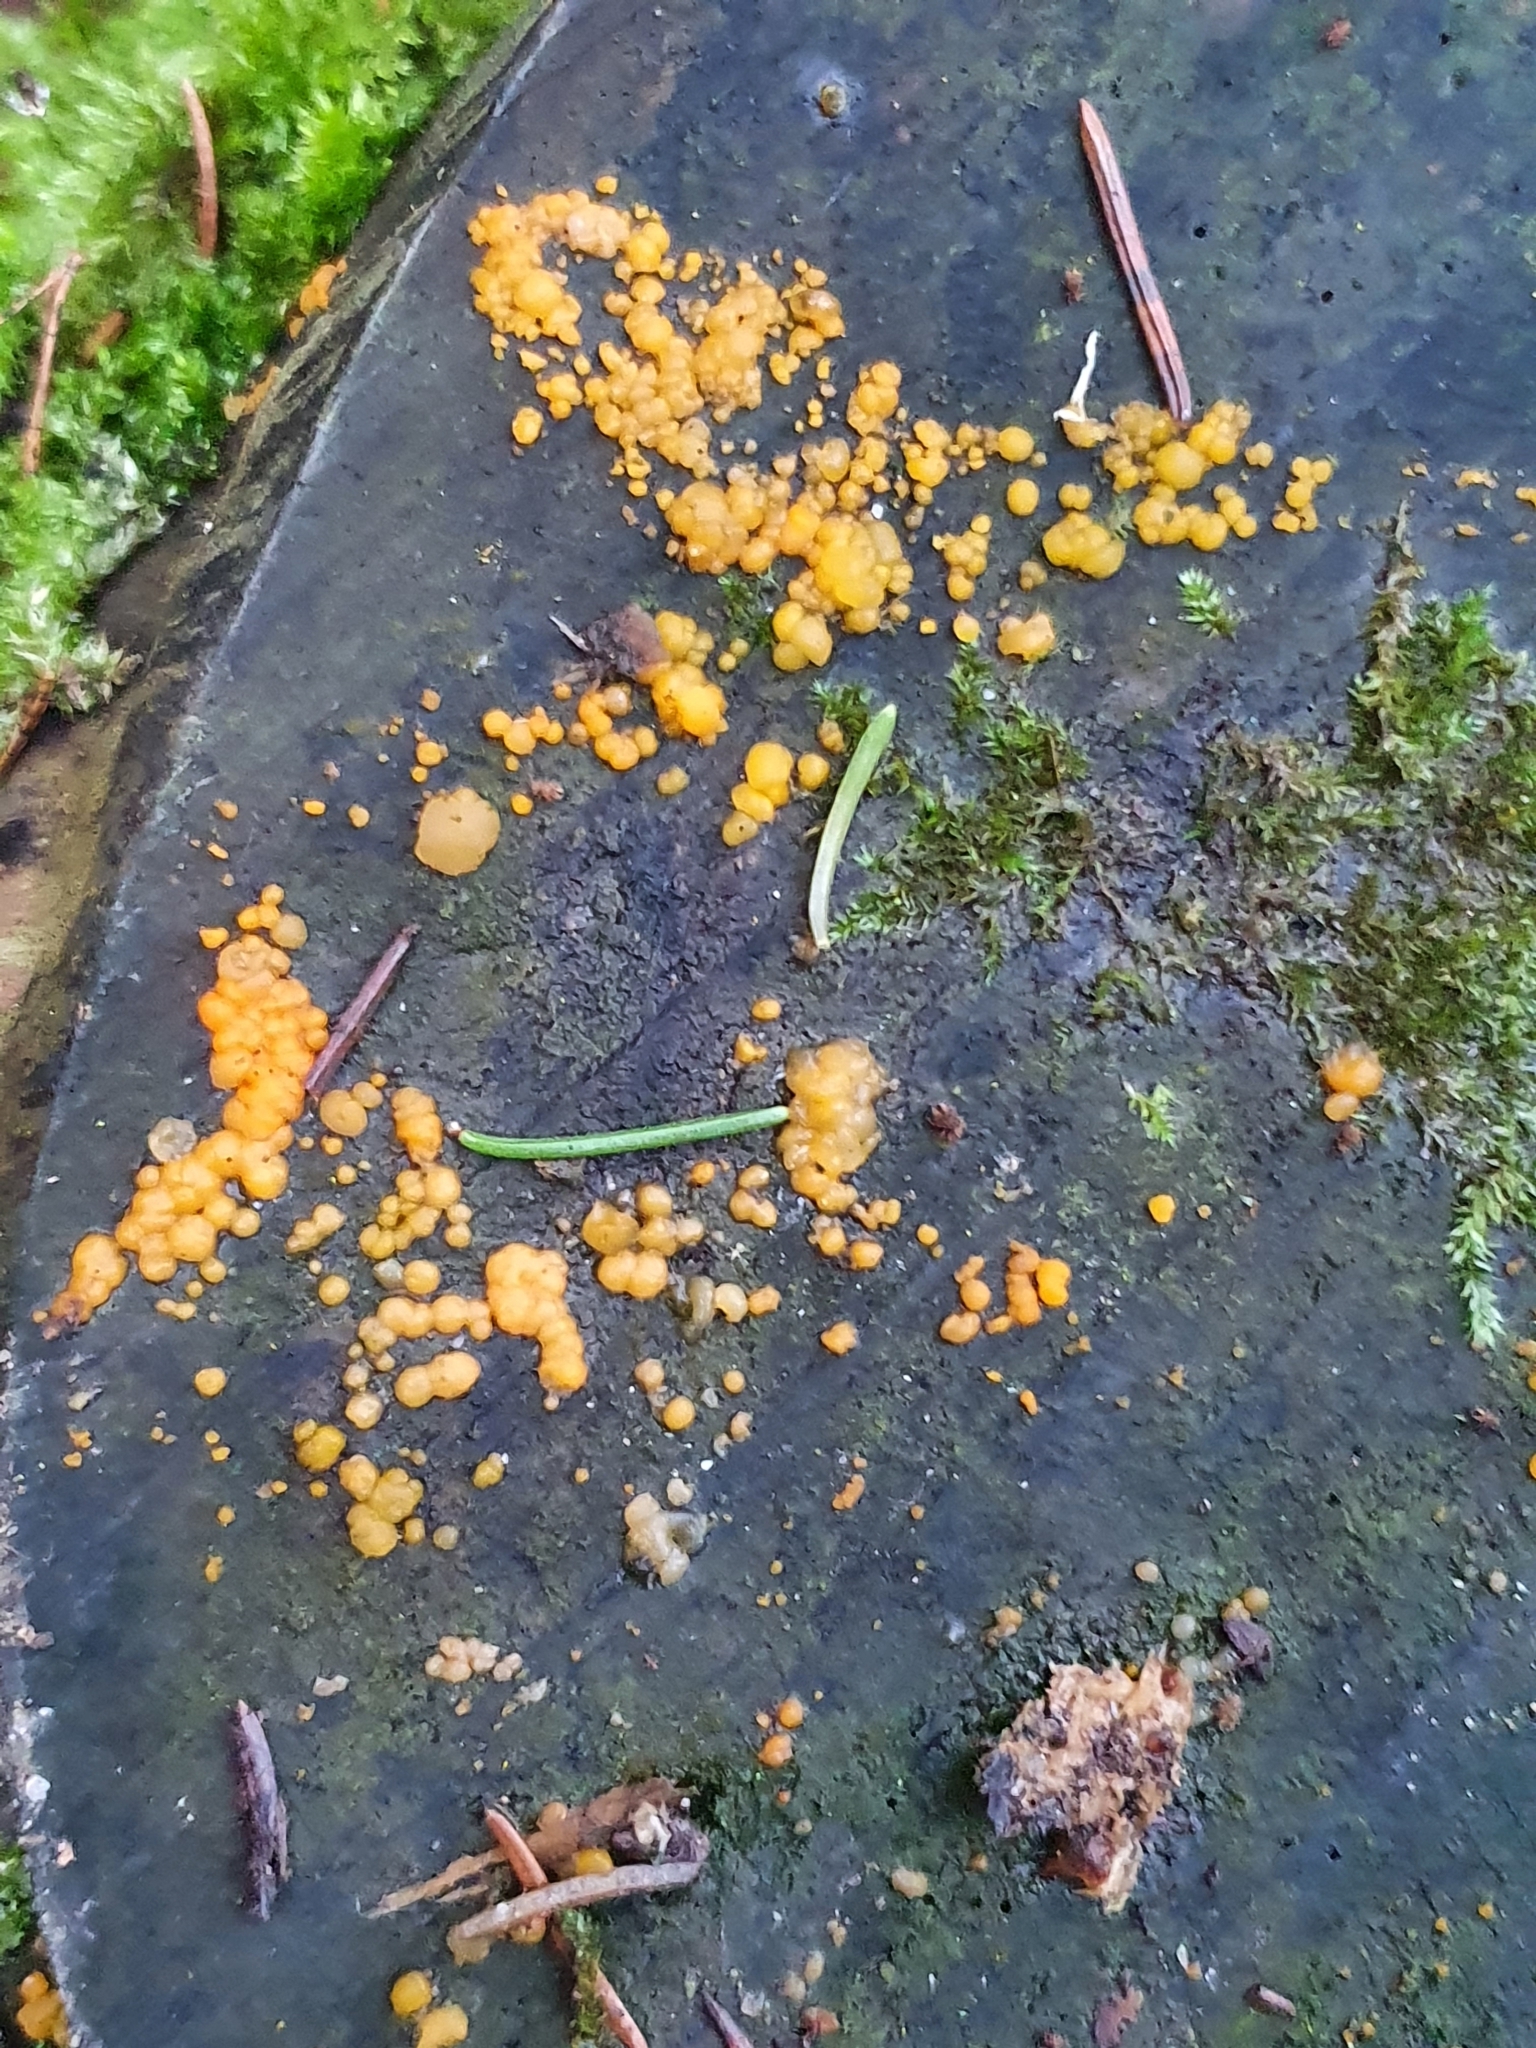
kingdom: Fungi
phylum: Basidiomycota
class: Dacrymycetes
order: Dacrymycetales
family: Dacrymycetaceae
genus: Dacrymyces
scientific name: Dacrymyces stillatus
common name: Common jelly spot
